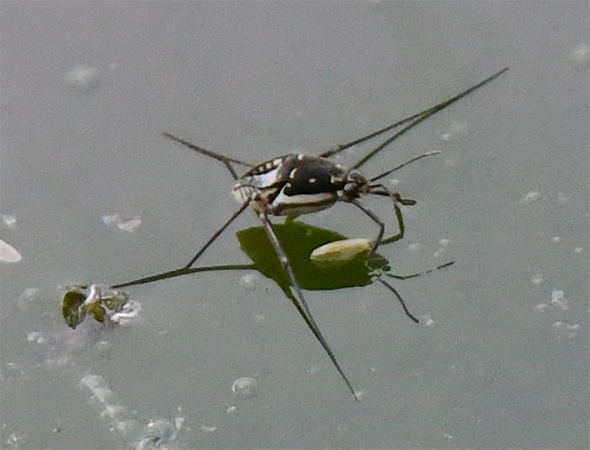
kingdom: Animalia
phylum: Arthropoda
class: Insecta
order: Hemiptera
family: Gerridae
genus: Trepobates
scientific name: Trepobates subnitidus
